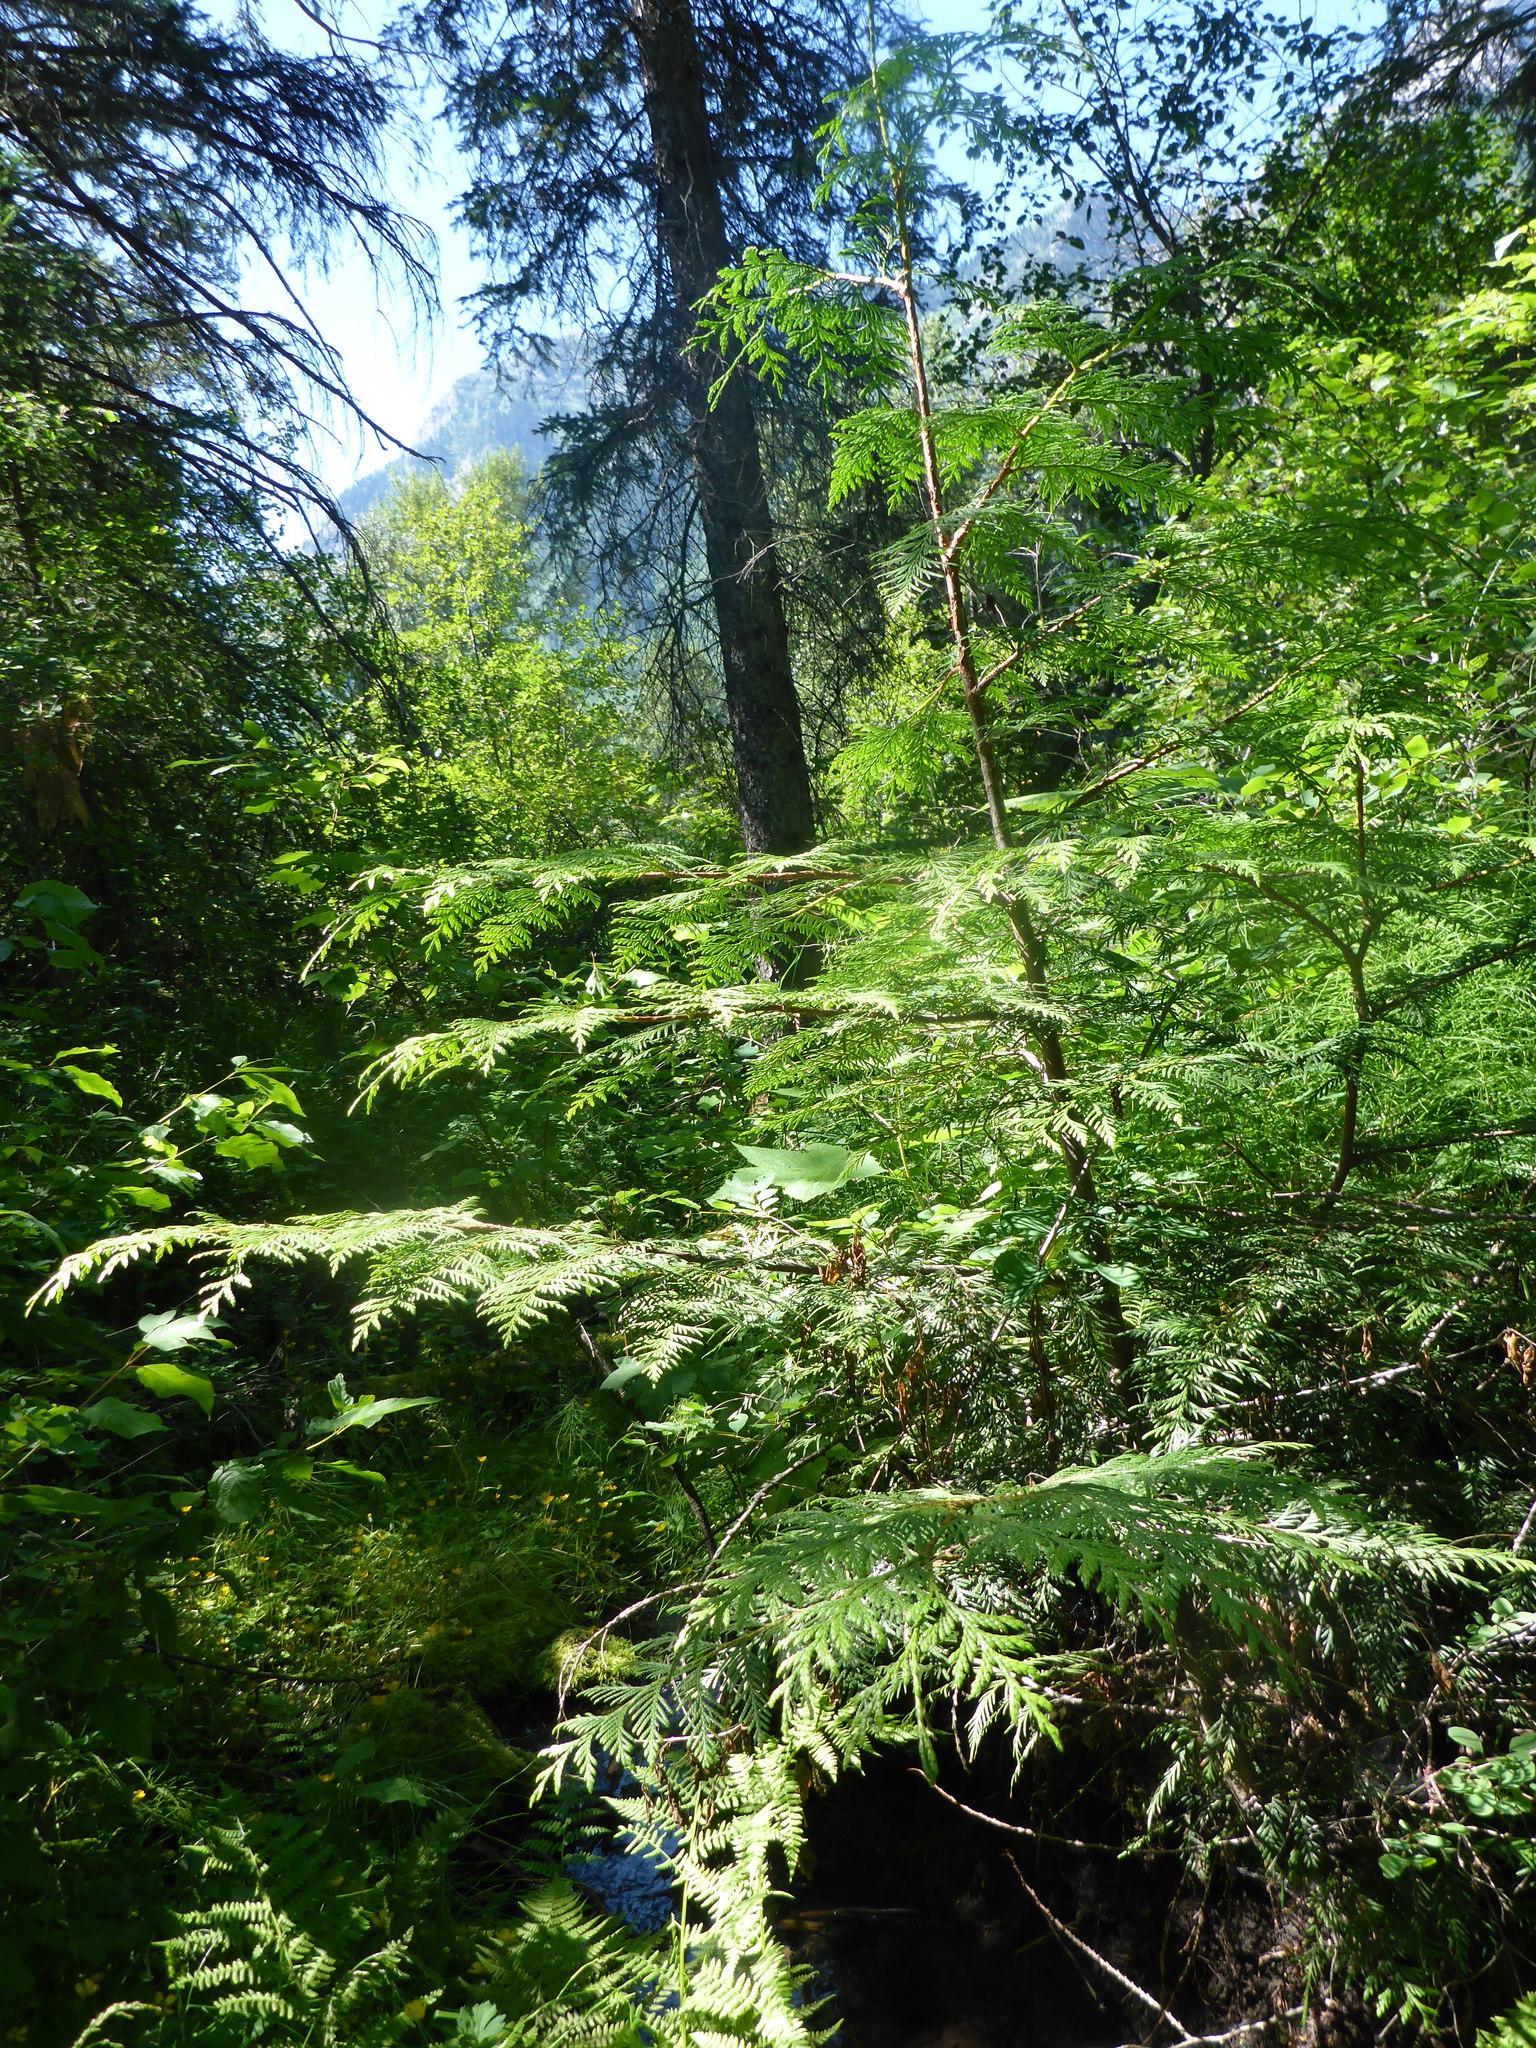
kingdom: Plantae
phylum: Tracheophyta
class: Pinopsida
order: Pinales
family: Cupressaceae
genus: Thuja
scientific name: Thuja plicata
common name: Western red-cedar
